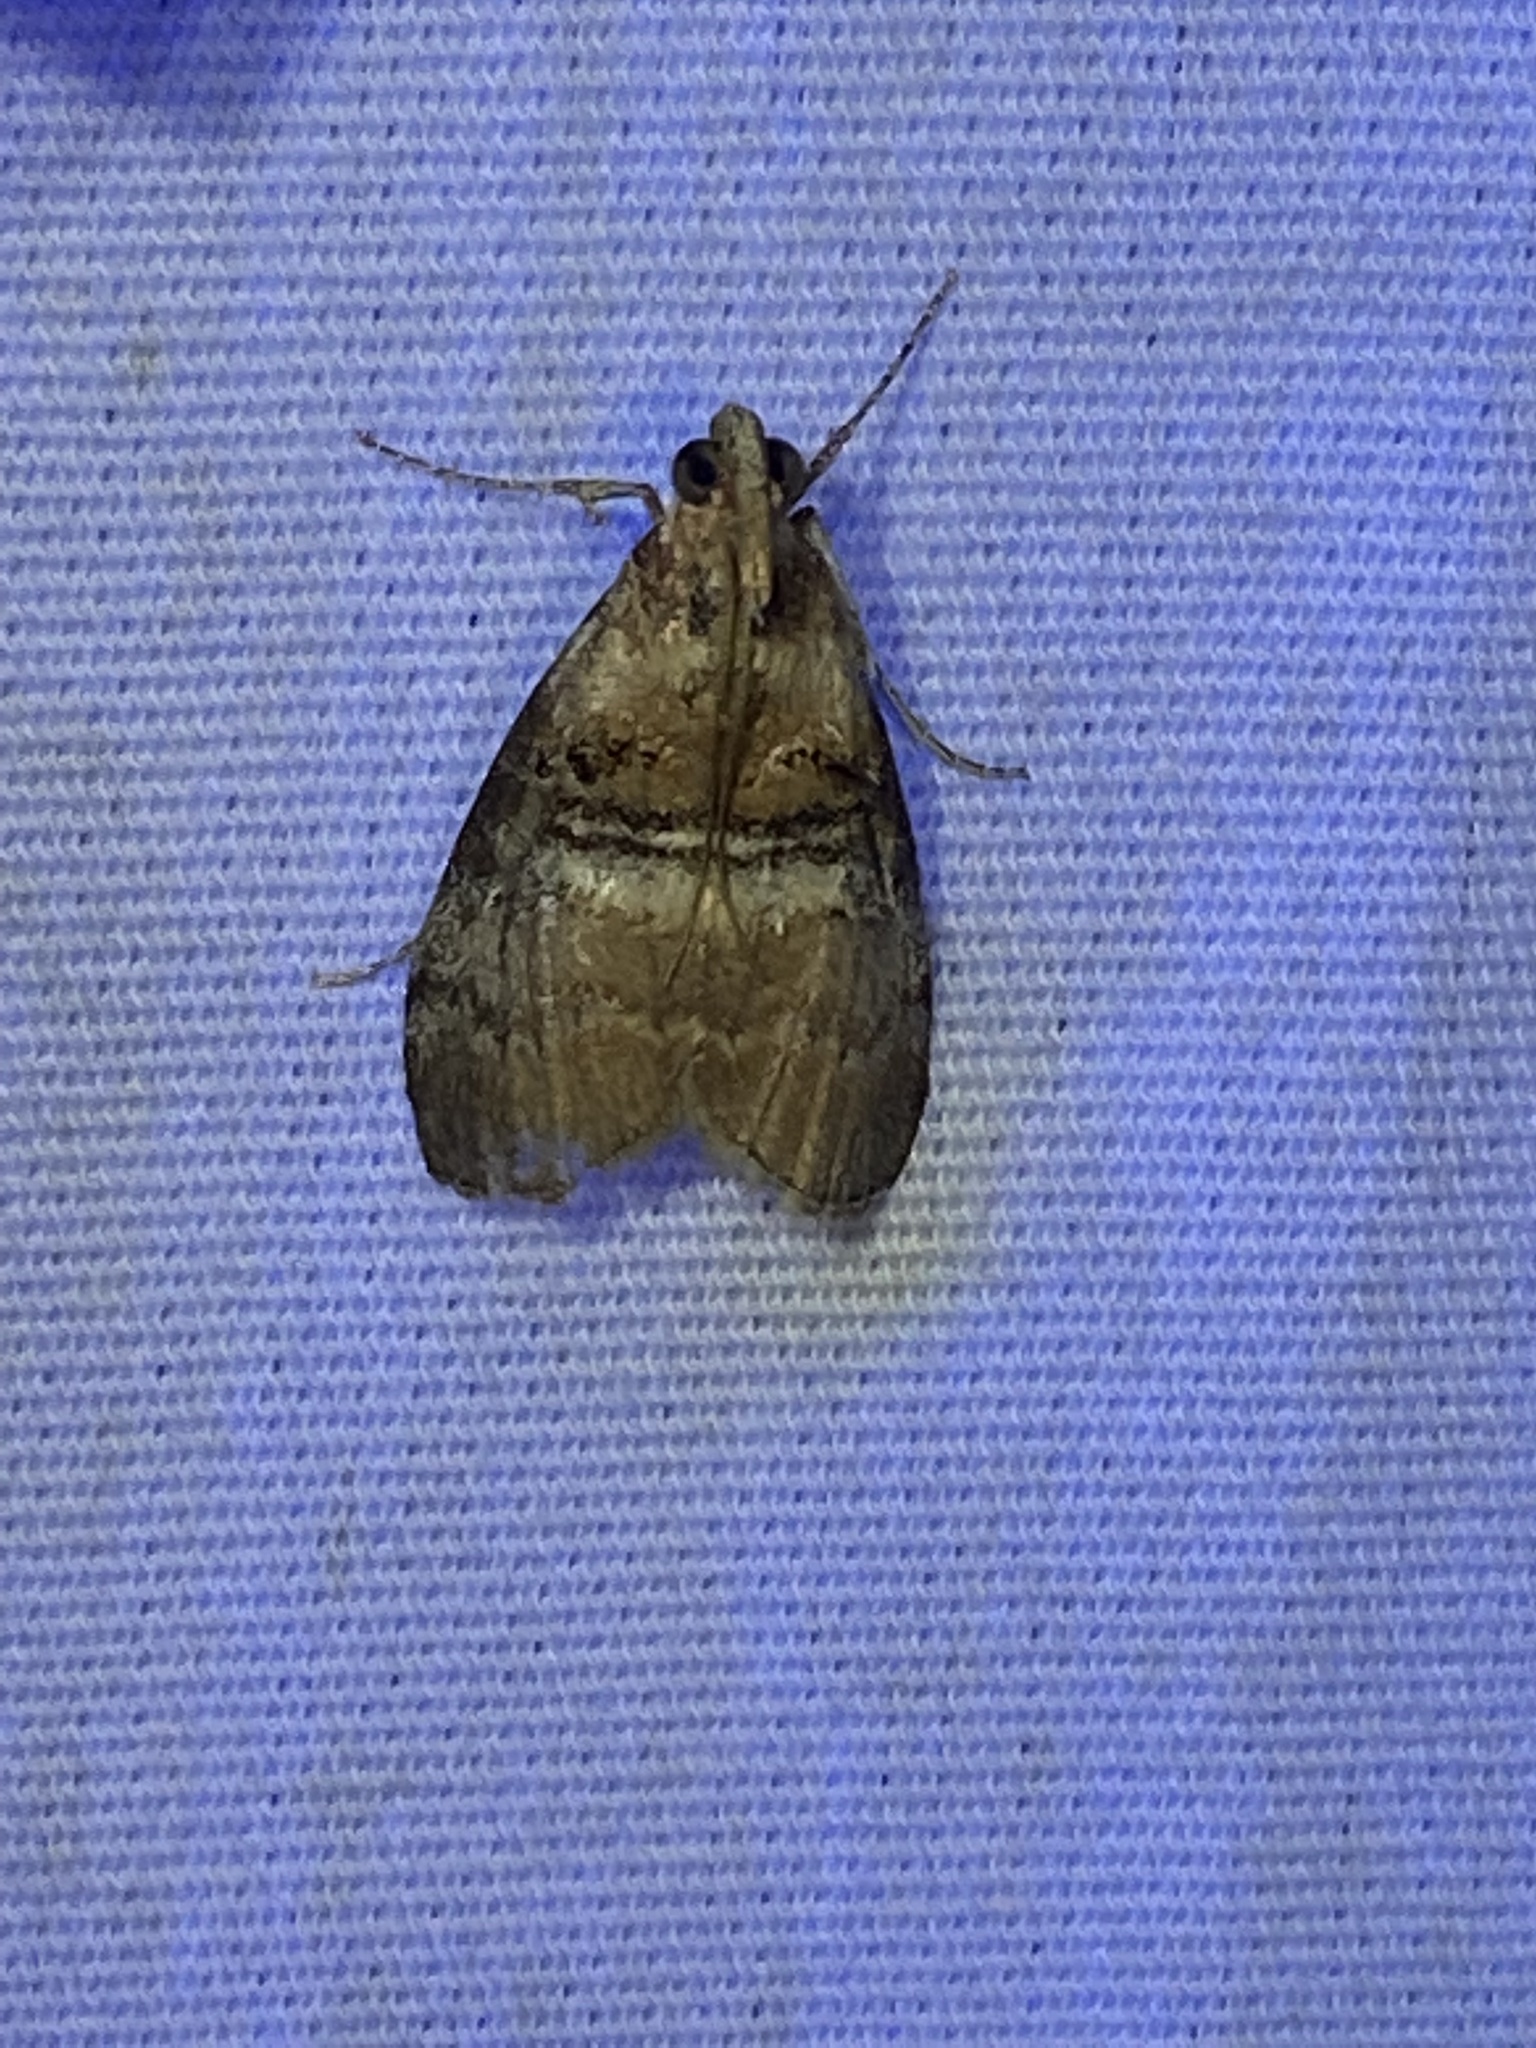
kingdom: Animalia
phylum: Arthropoda
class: Insecta
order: Lepidoptera
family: Pyralidae
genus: Pococera
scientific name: Pococera militella
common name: Sycamore webworm moth
